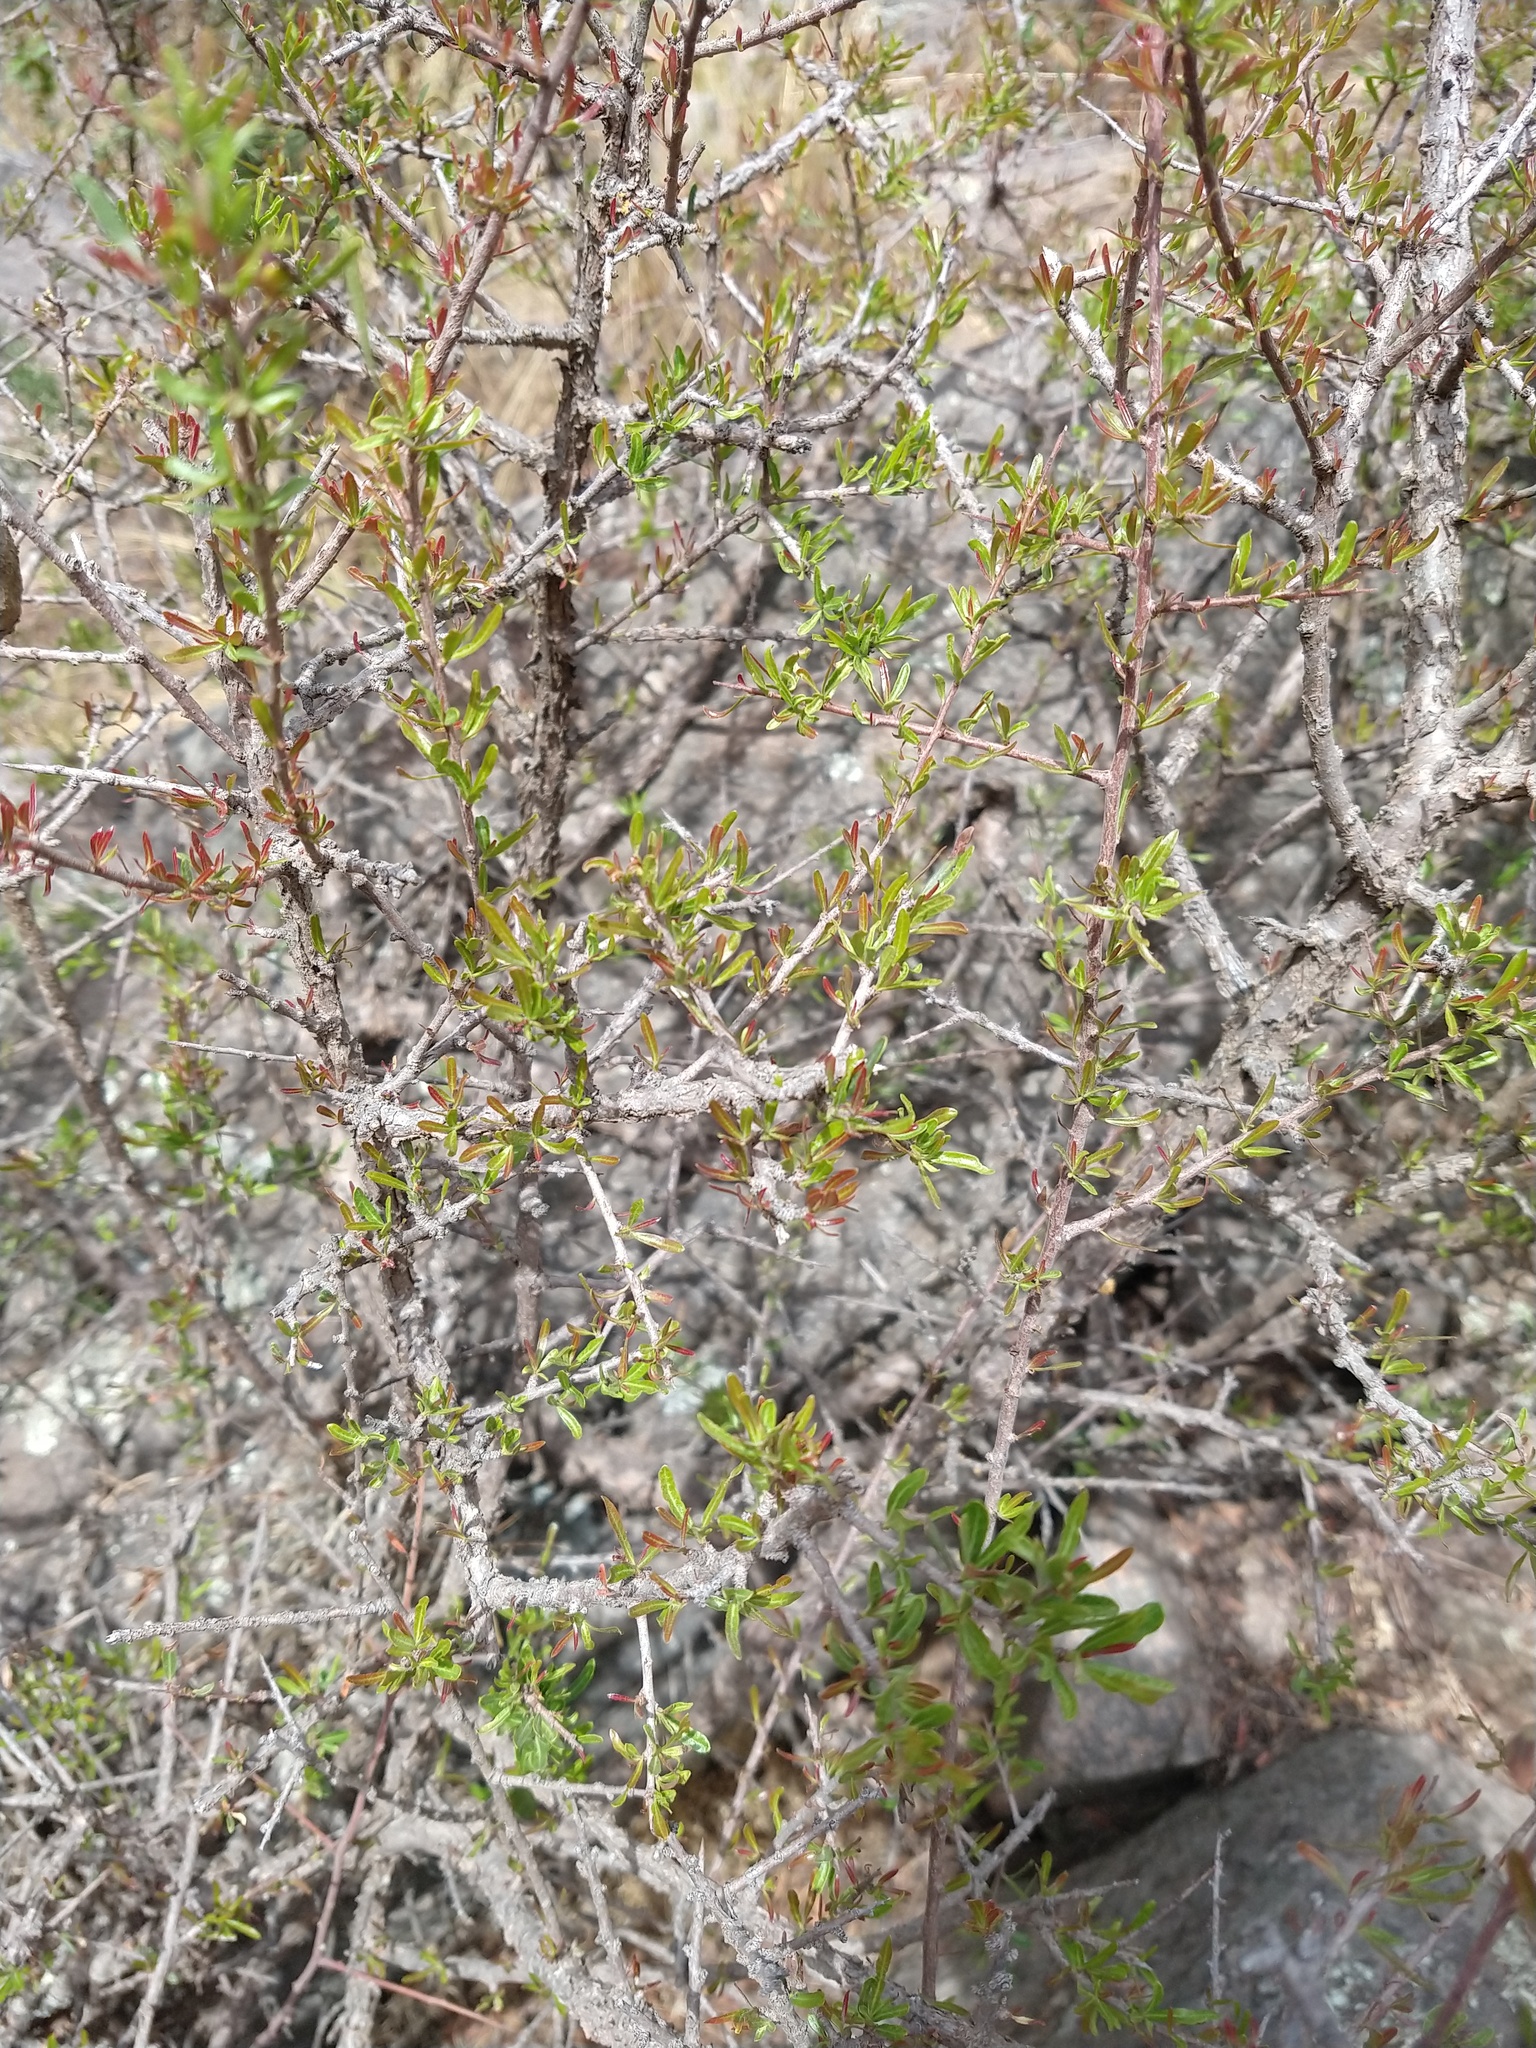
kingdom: Plantae
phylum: Tracheophyta
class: Magnoliopsida
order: Sapindales
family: Anacardiaceae
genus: Schinus
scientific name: Schinus talampaya
